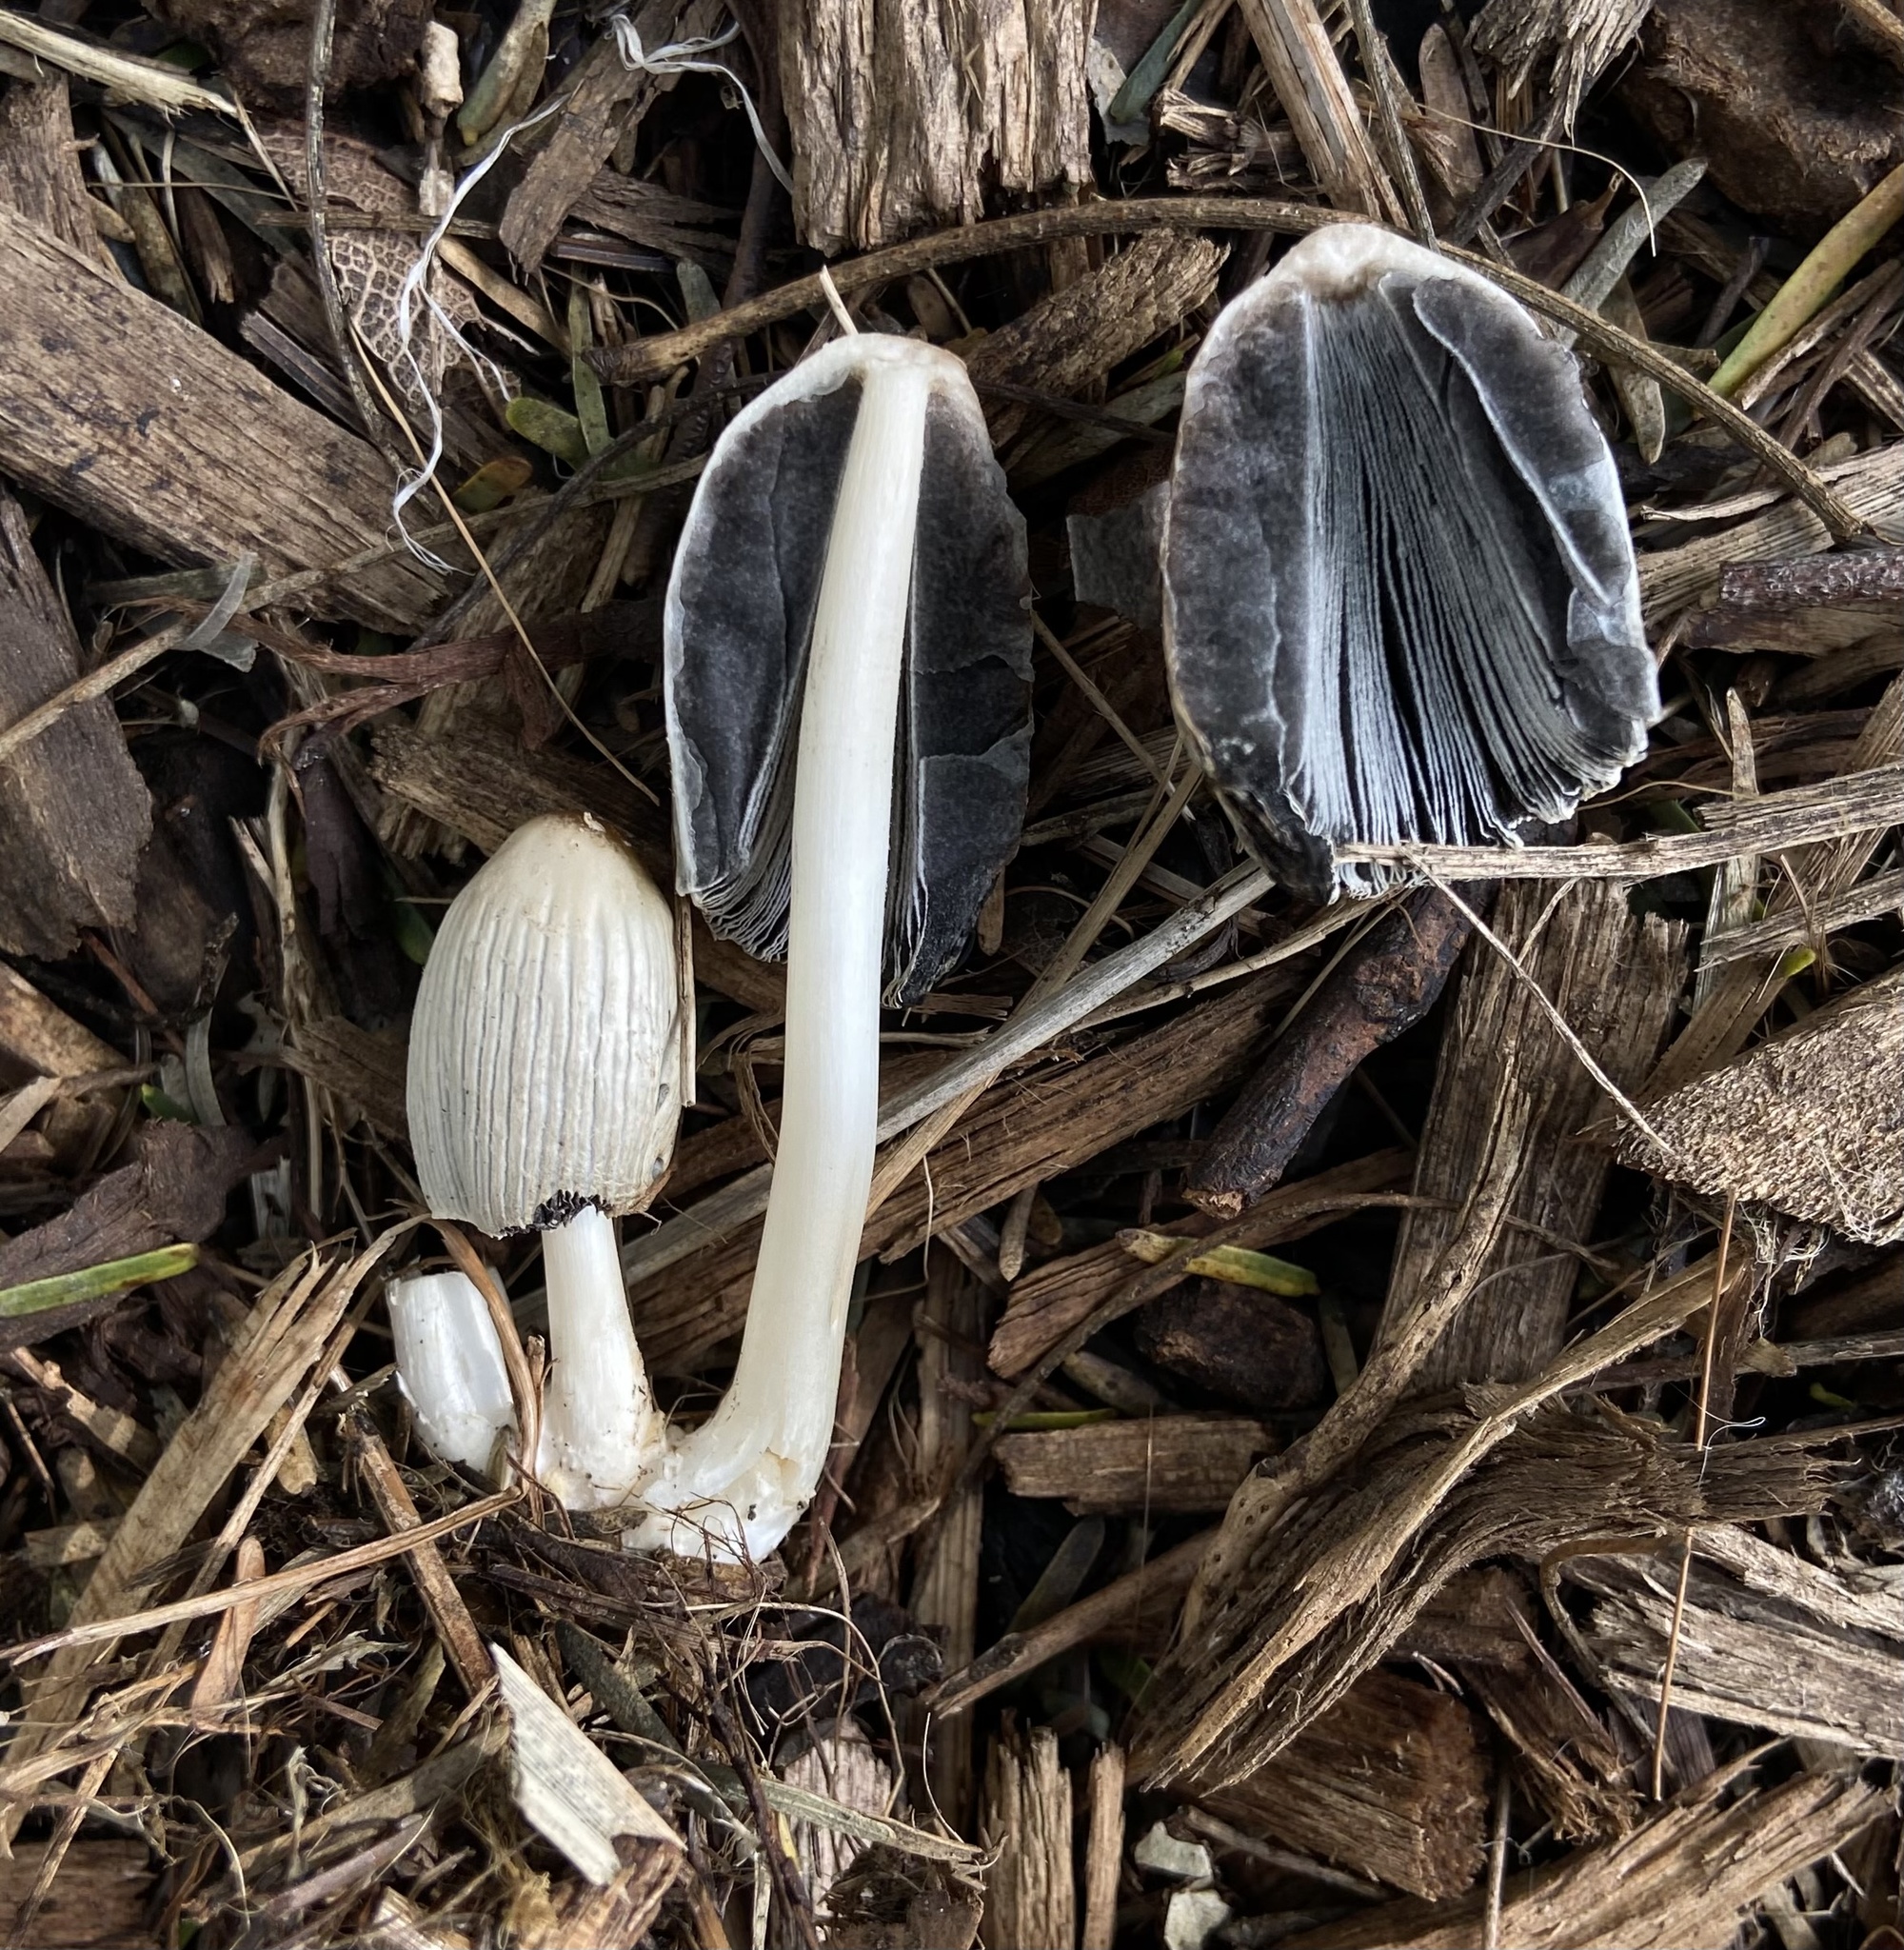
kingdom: Fungi
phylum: Basidiomycota
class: Agaricomycetes
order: Agaricales
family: Psathyrellaceae
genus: Coprinellus
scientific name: Coprinellus flocculosus
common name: Flocculose inkcap
